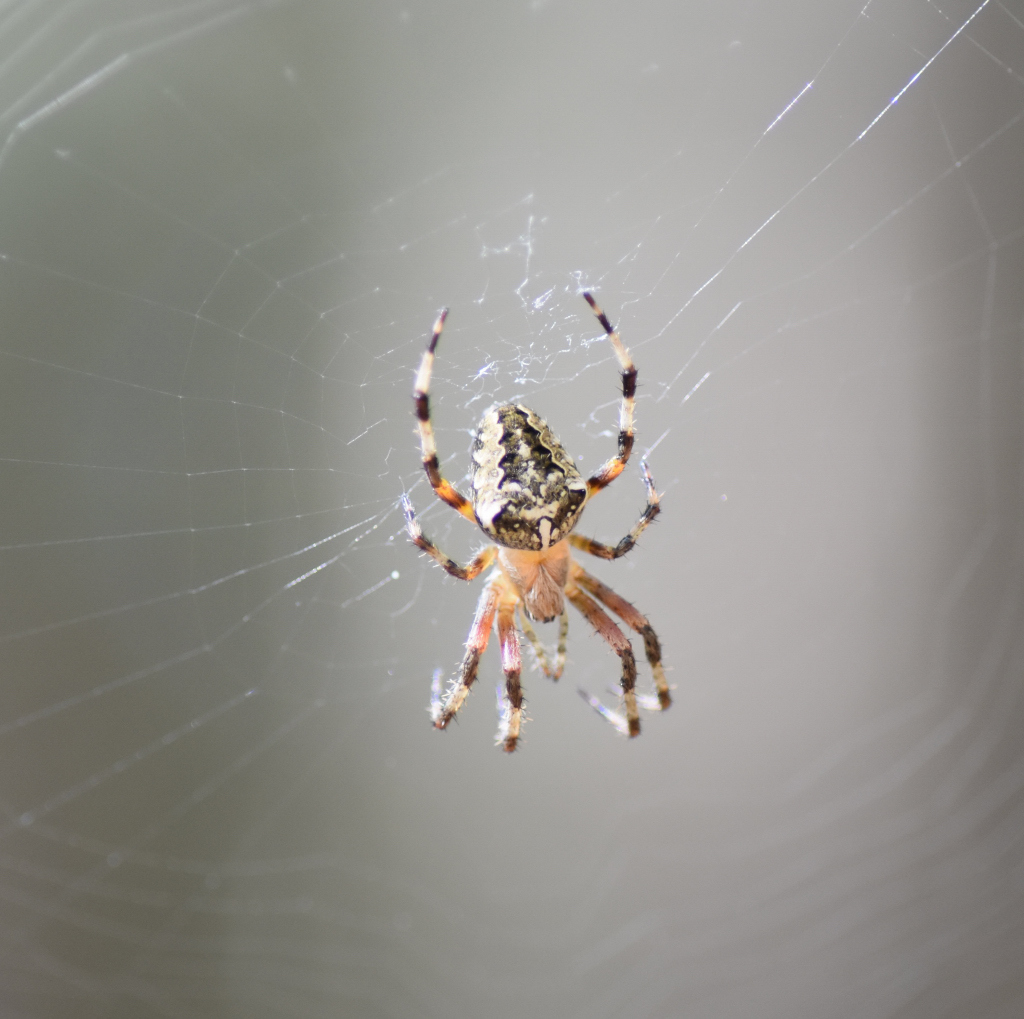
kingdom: Animalia
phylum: Arthropoda
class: Arachnida
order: Araneae
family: Araneidae
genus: Araneus
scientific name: Araneus nordmanni
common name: Nordmann's orbweaver
